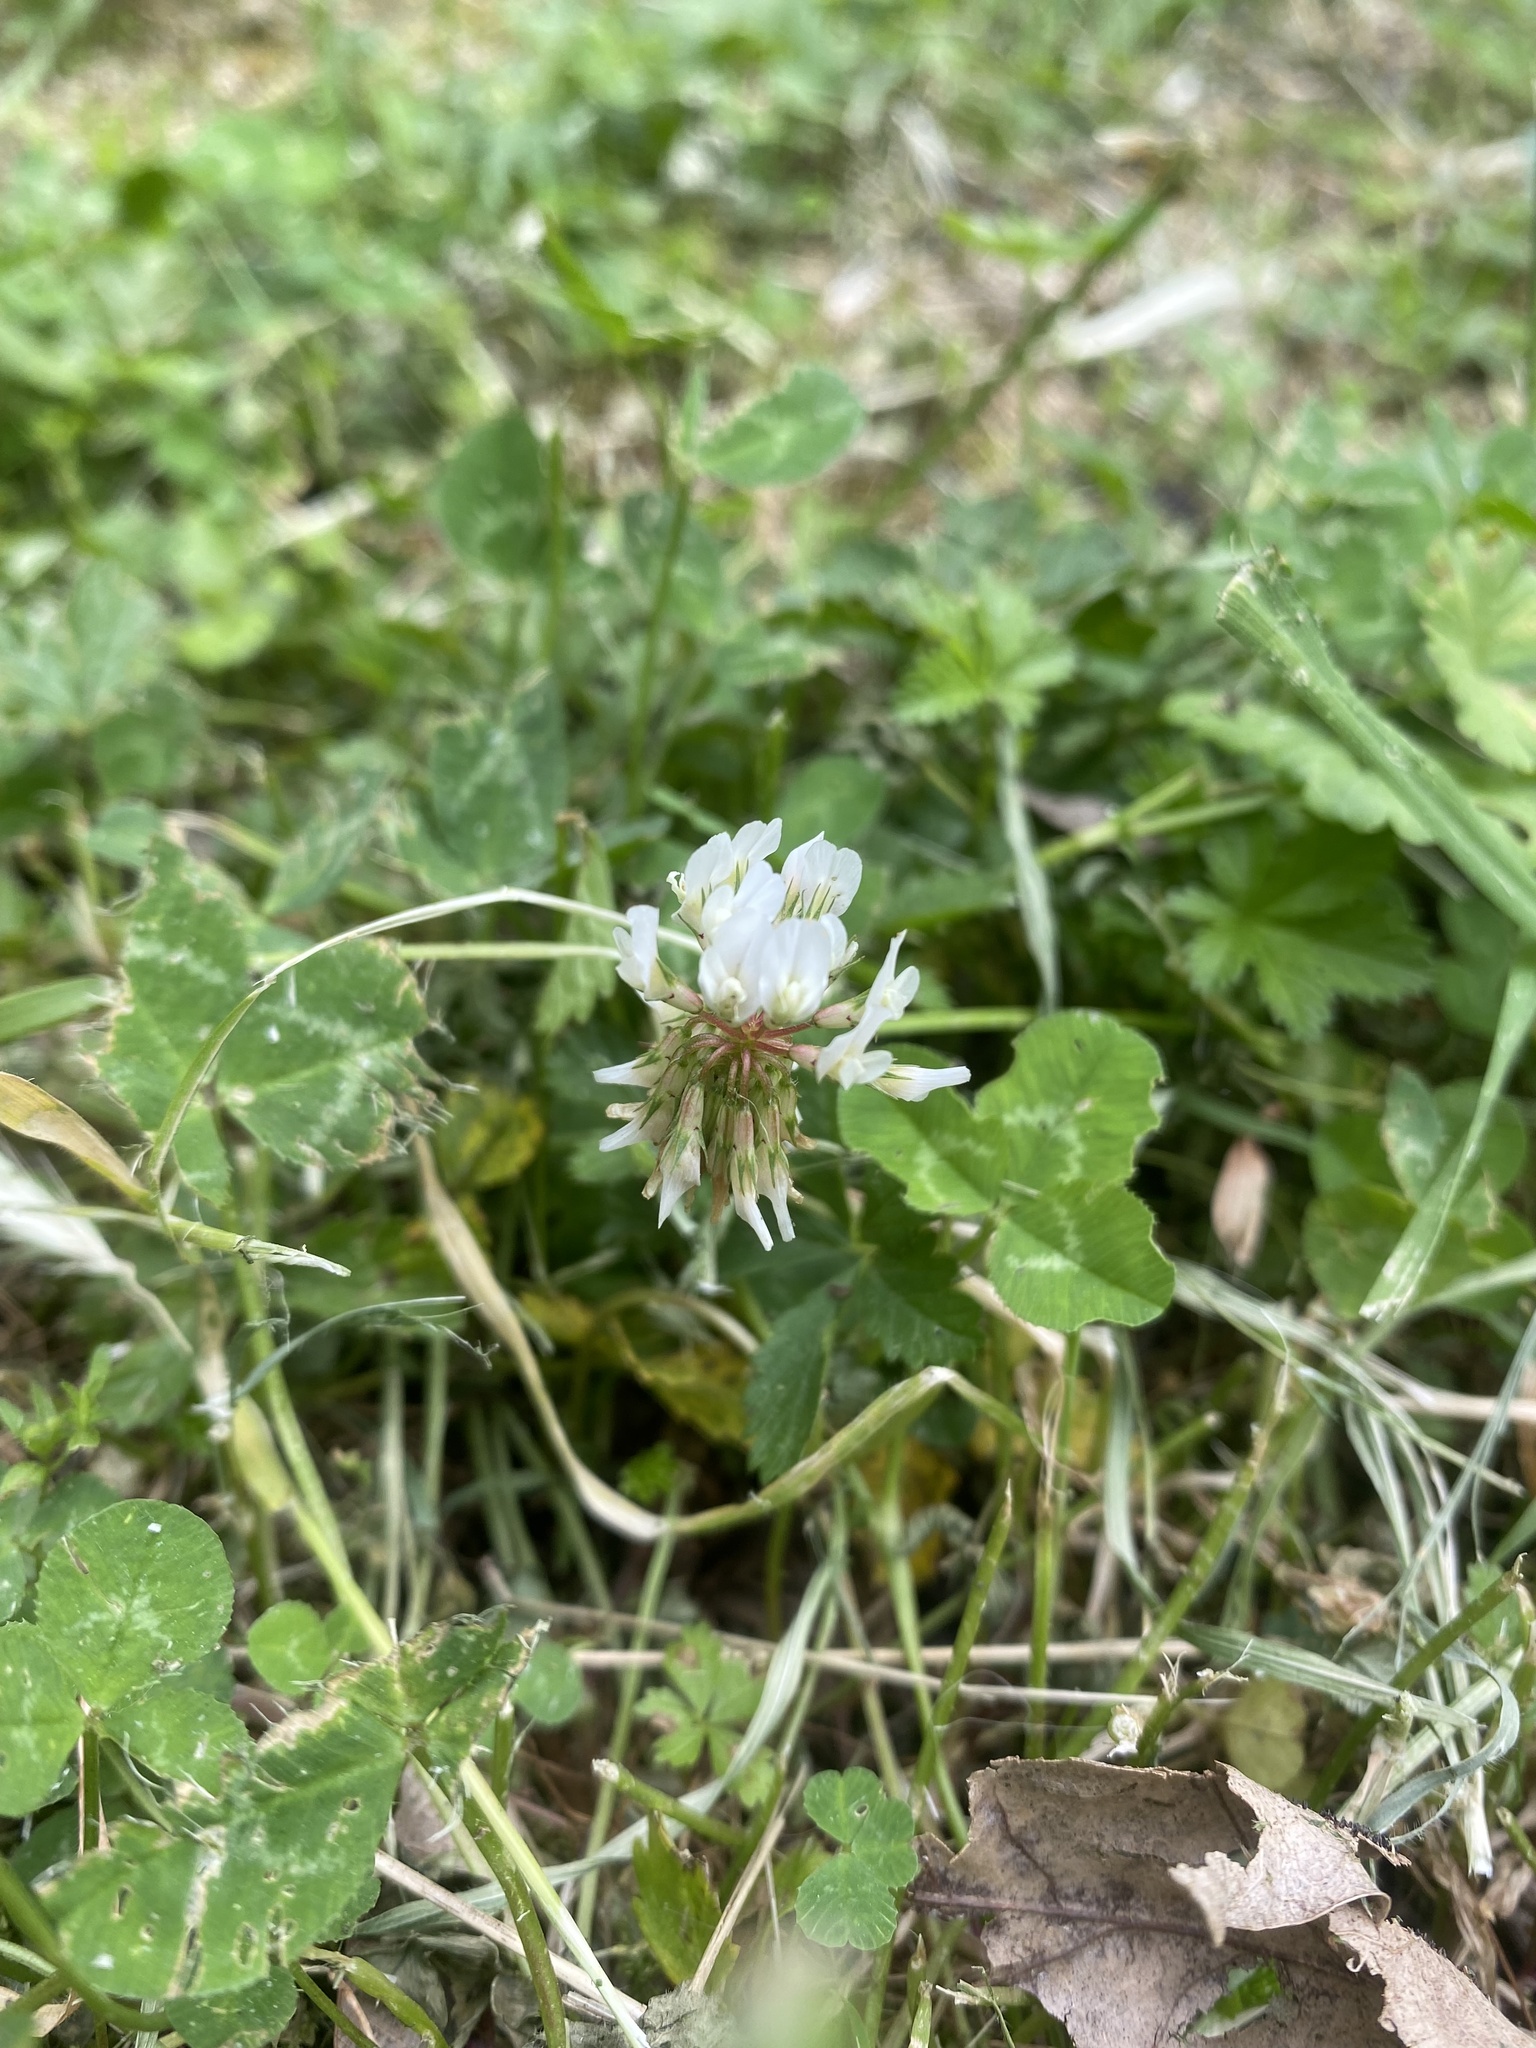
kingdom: Plantae
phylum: Tracheophyta
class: Magnoliopsida
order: Fabales
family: Fabaceae
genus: Trifolium
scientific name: Trifolium repens
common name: White clover
